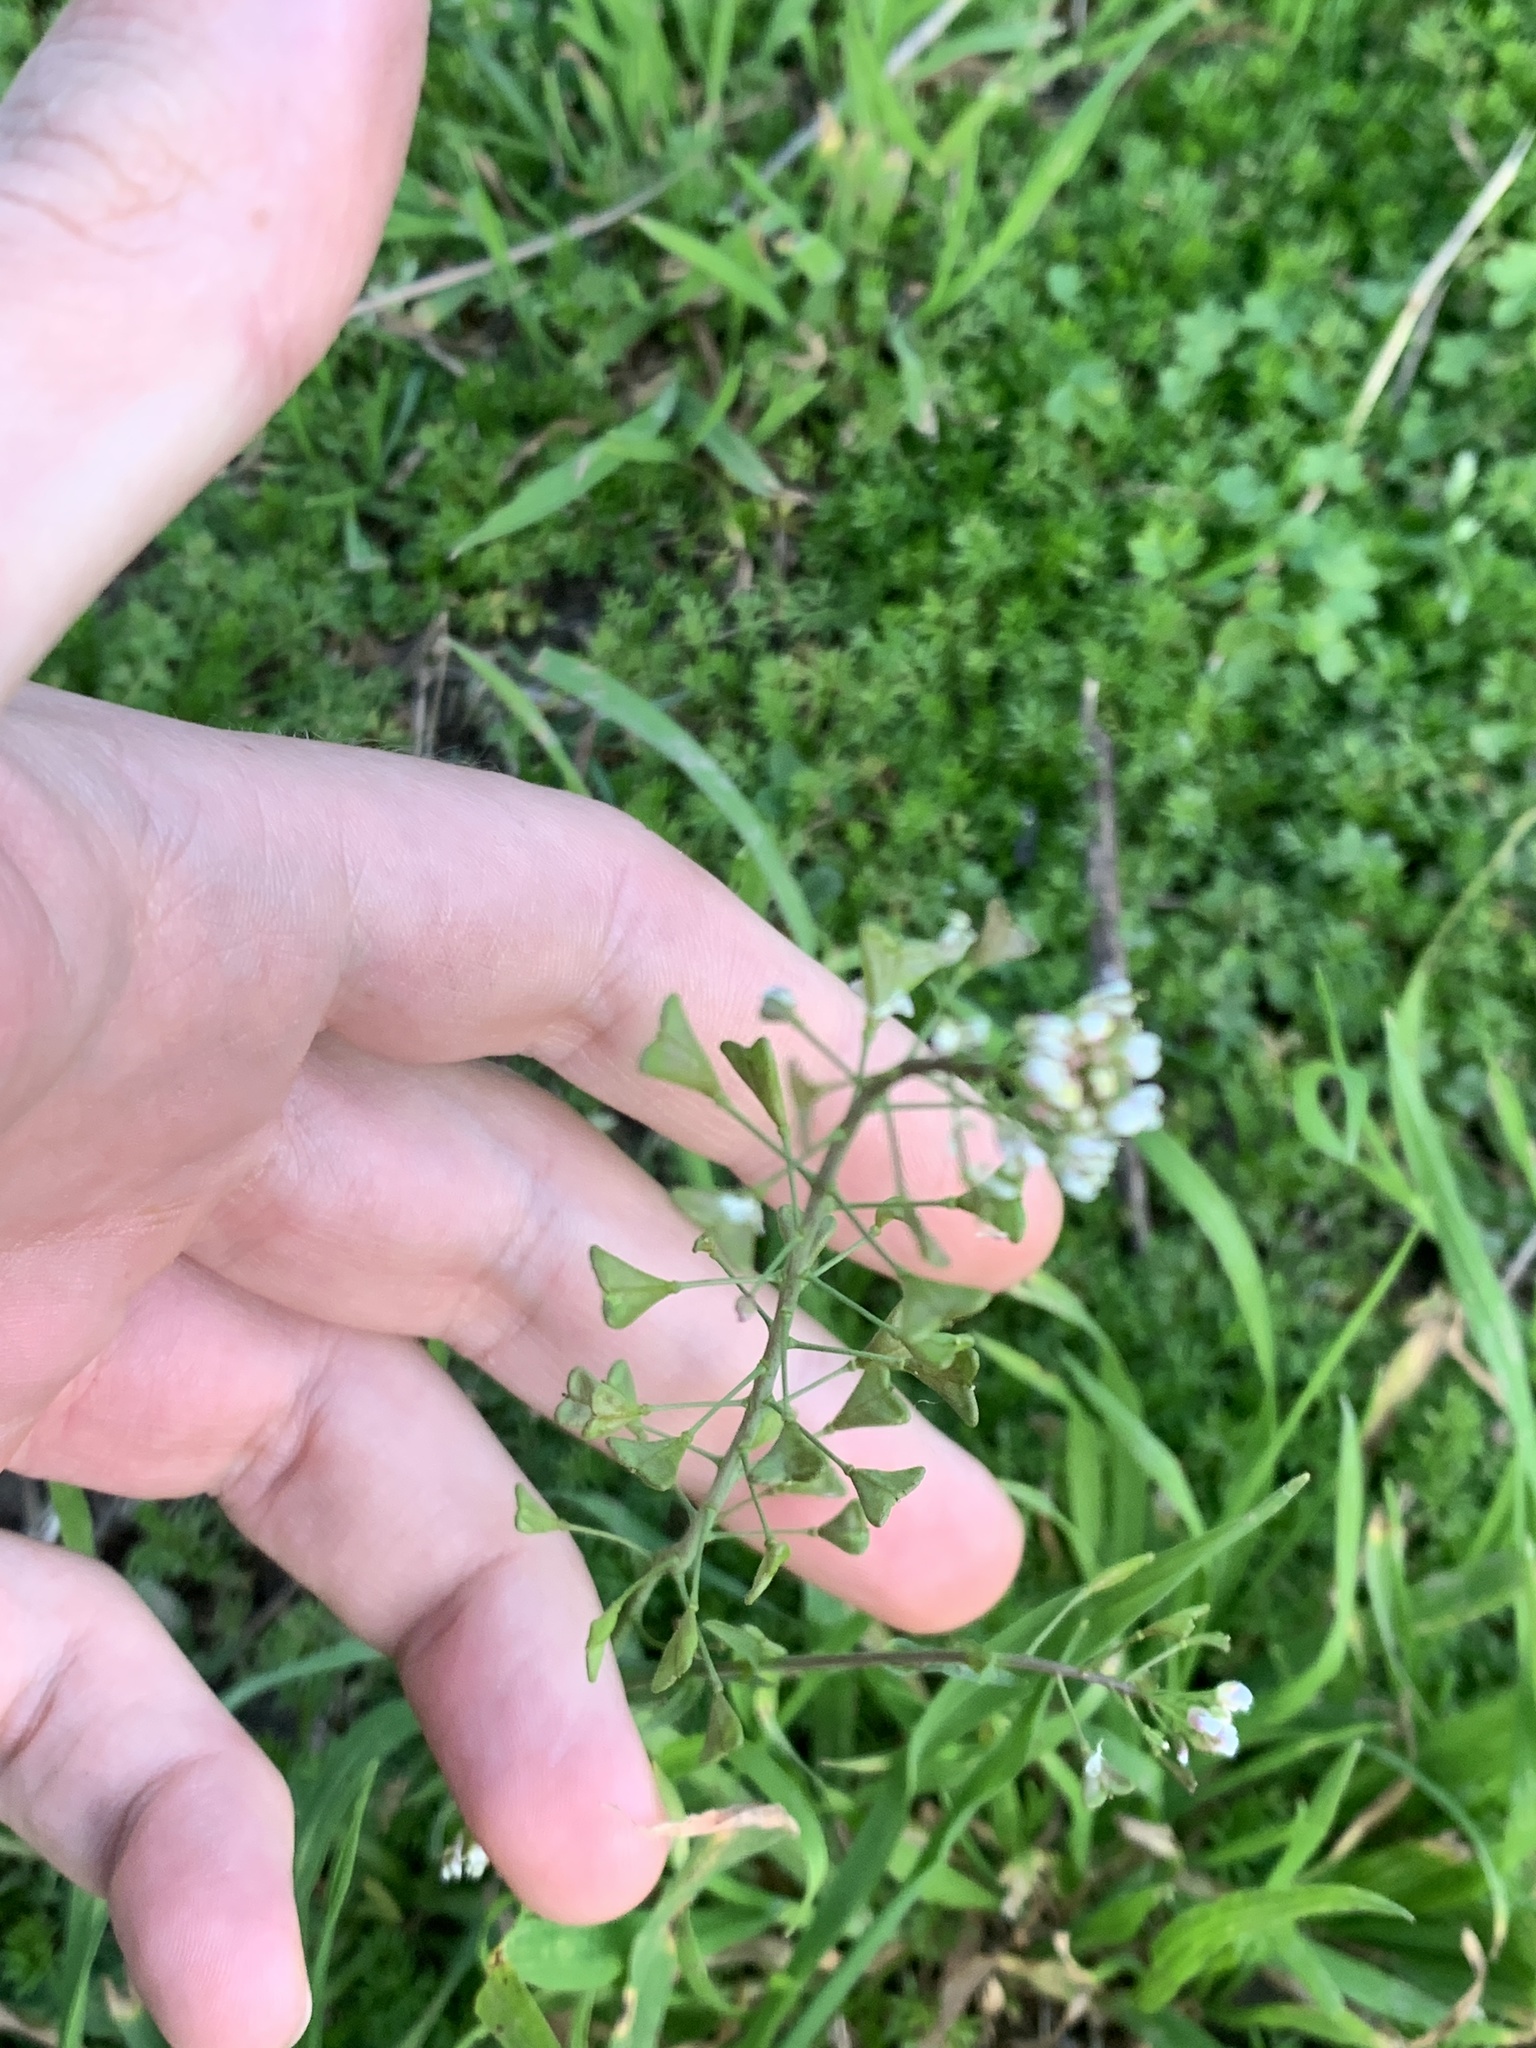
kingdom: Plantae
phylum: Tracheophyta
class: Magnoliopsida
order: Brassicales
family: Brassicaceae
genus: Capsella
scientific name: Capsella bursa-pastoris
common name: Shepherd's purse
